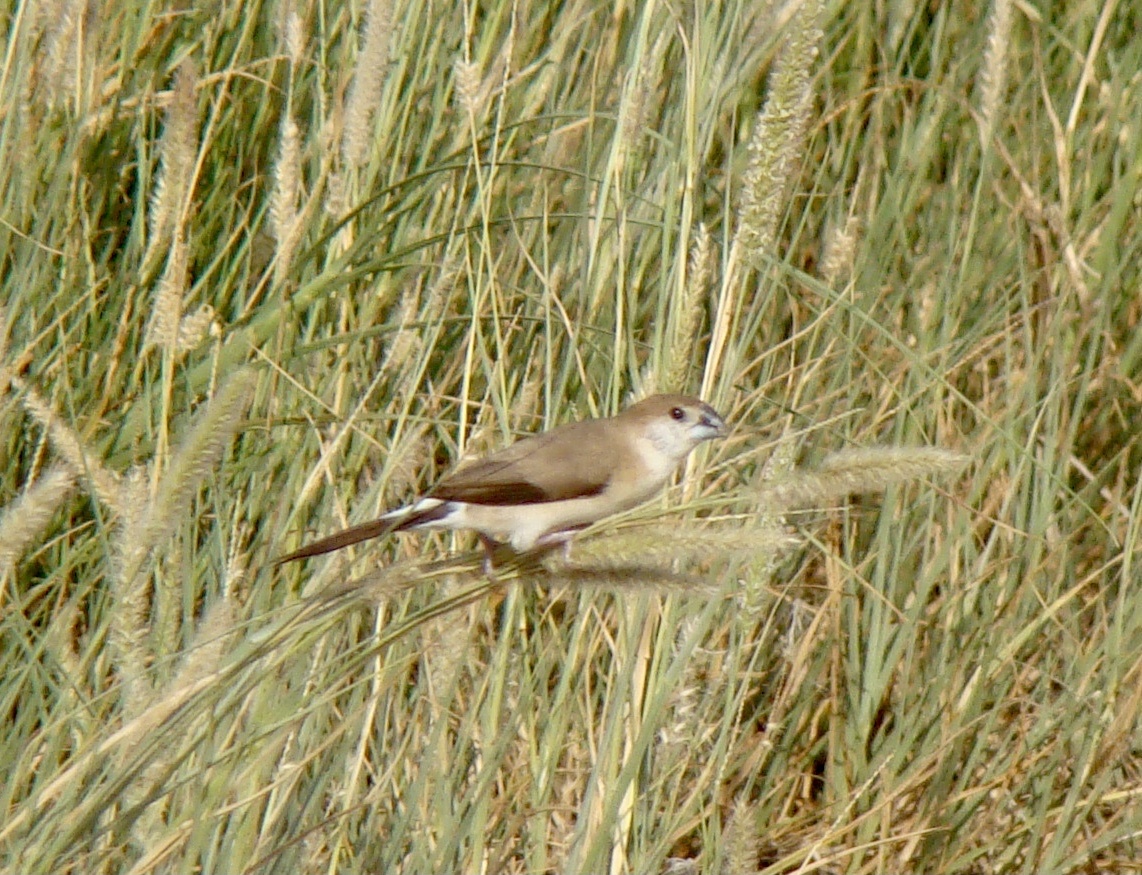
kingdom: Animalia
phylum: Chordata
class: Aves
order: Passeriformes
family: Estrildidae
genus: Euodice
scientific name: Euodice malabarica
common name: Indian silverbill
